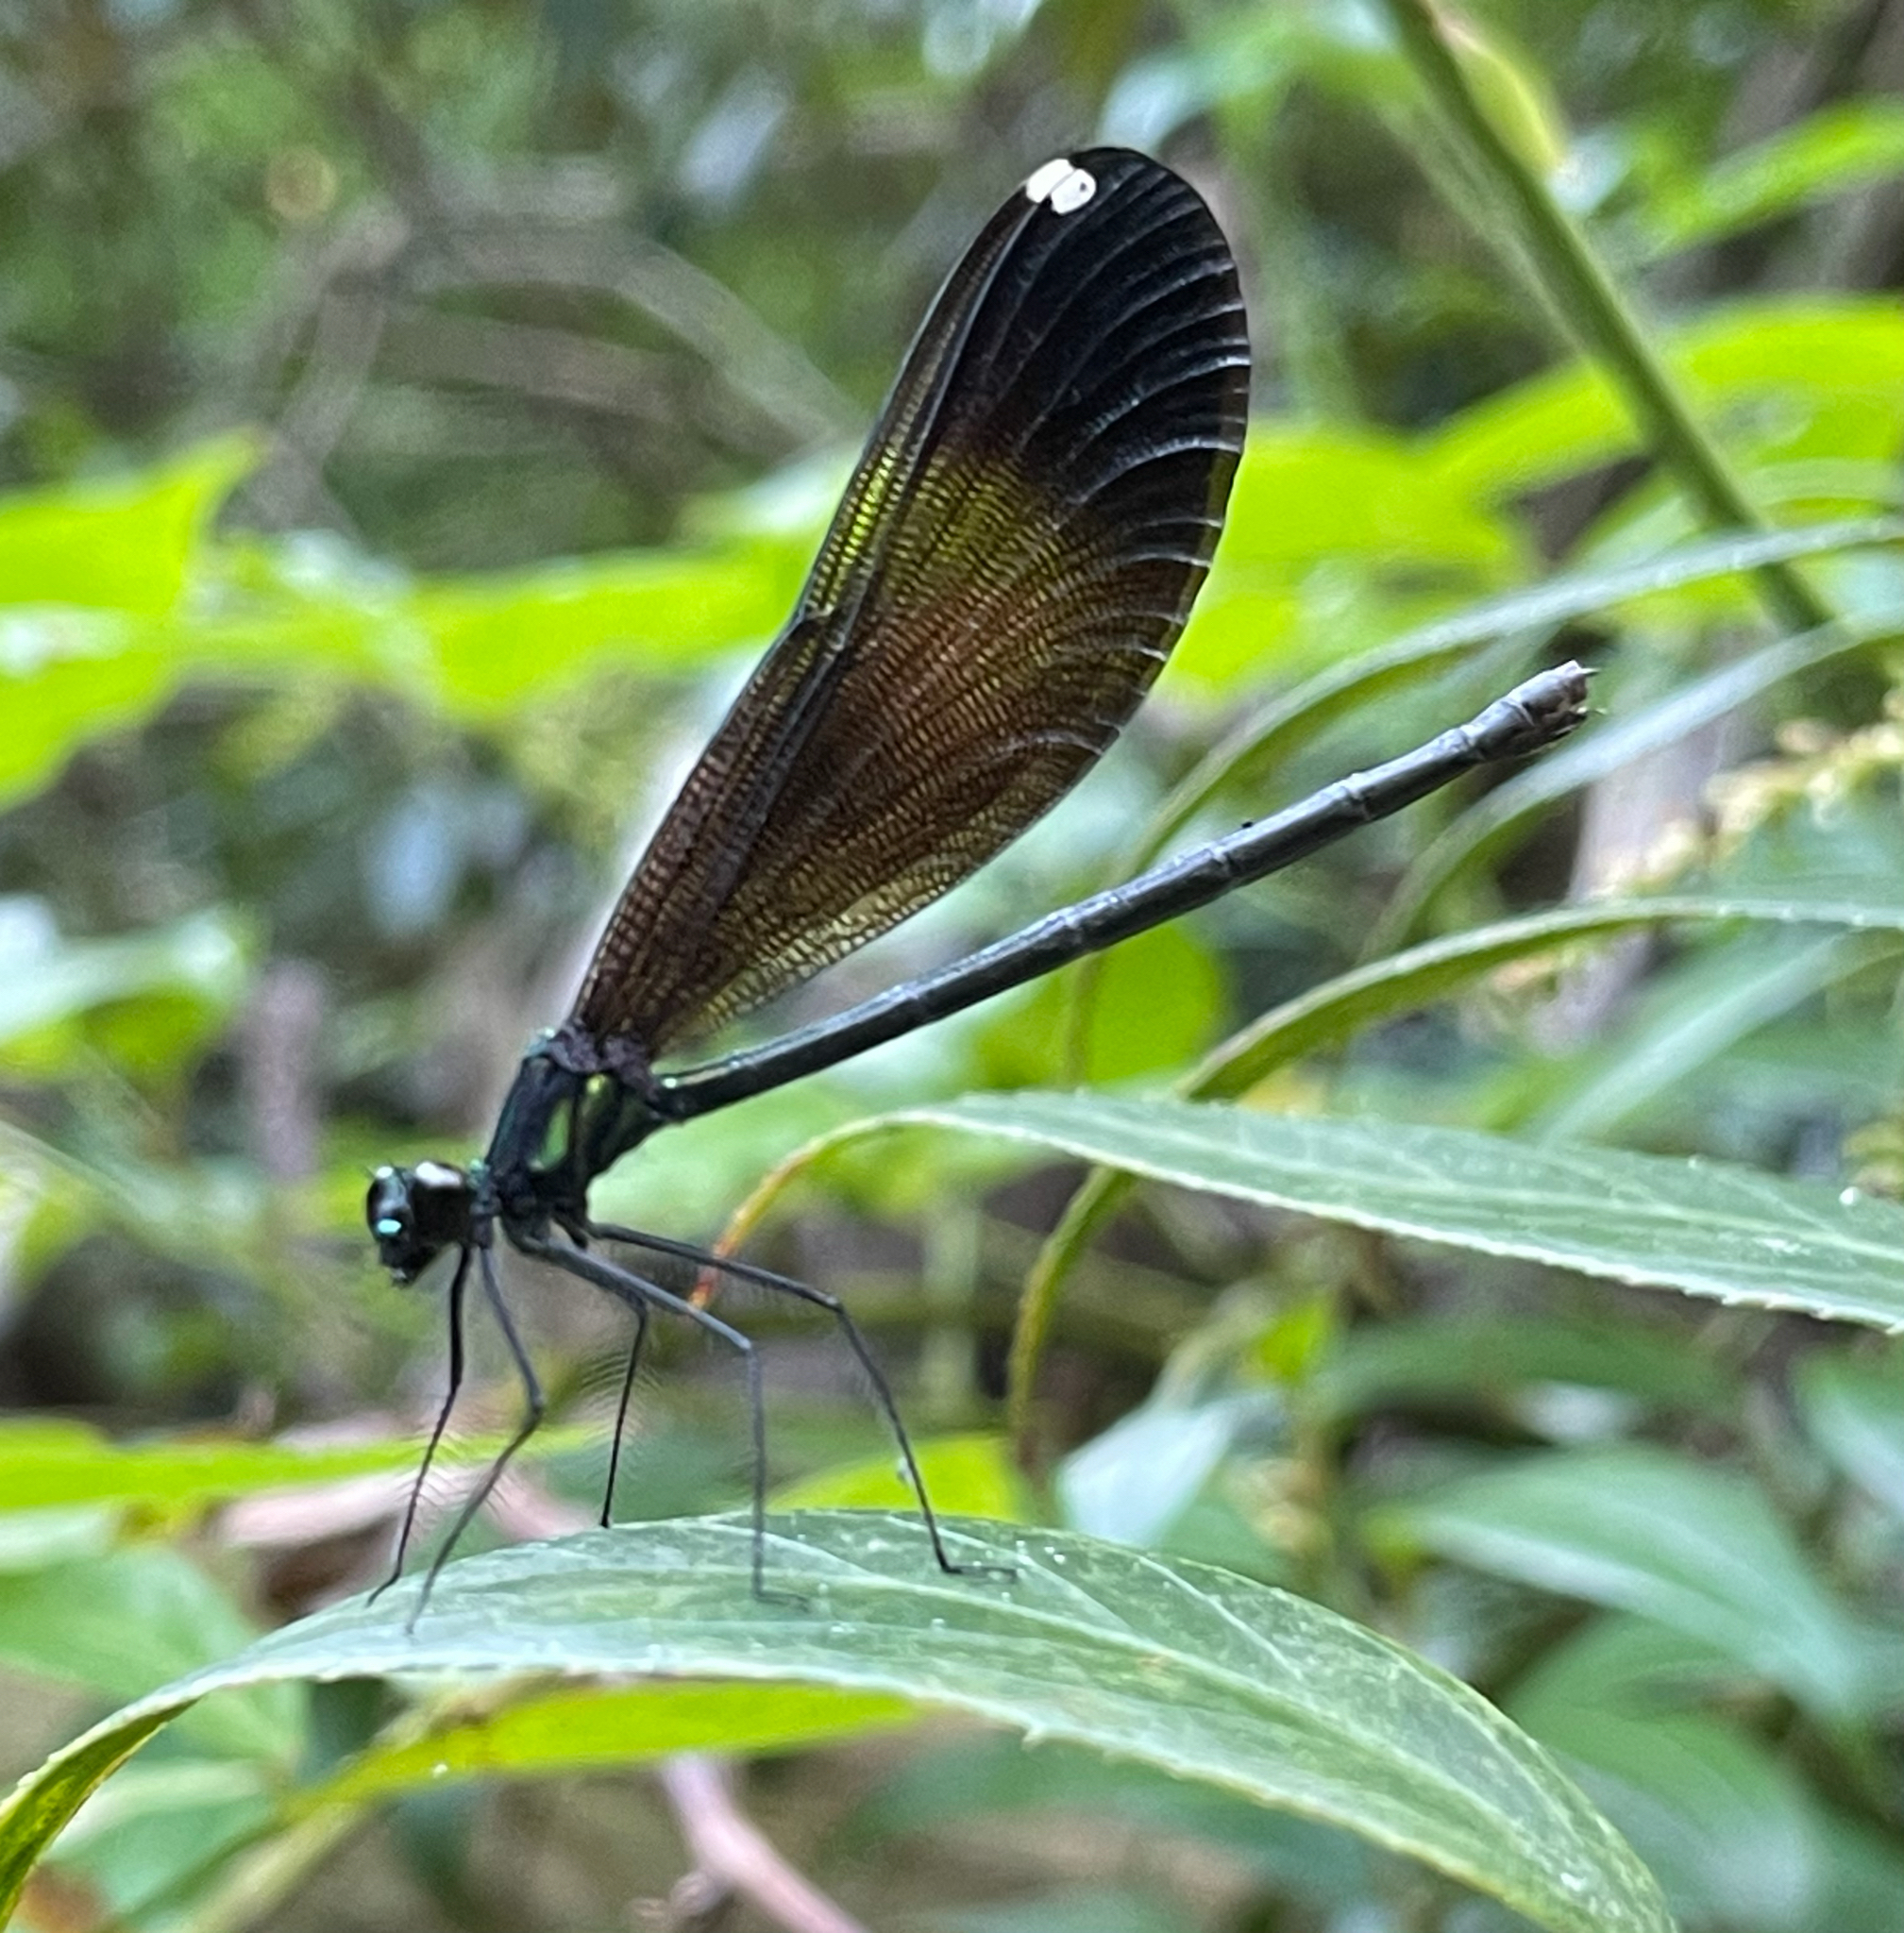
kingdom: Animalia
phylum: Arthropoda
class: Insecta
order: Odonata
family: Calopterygidae
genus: Calopteryx
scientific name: Calopteryx maculata
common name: Ebony jewelwing
